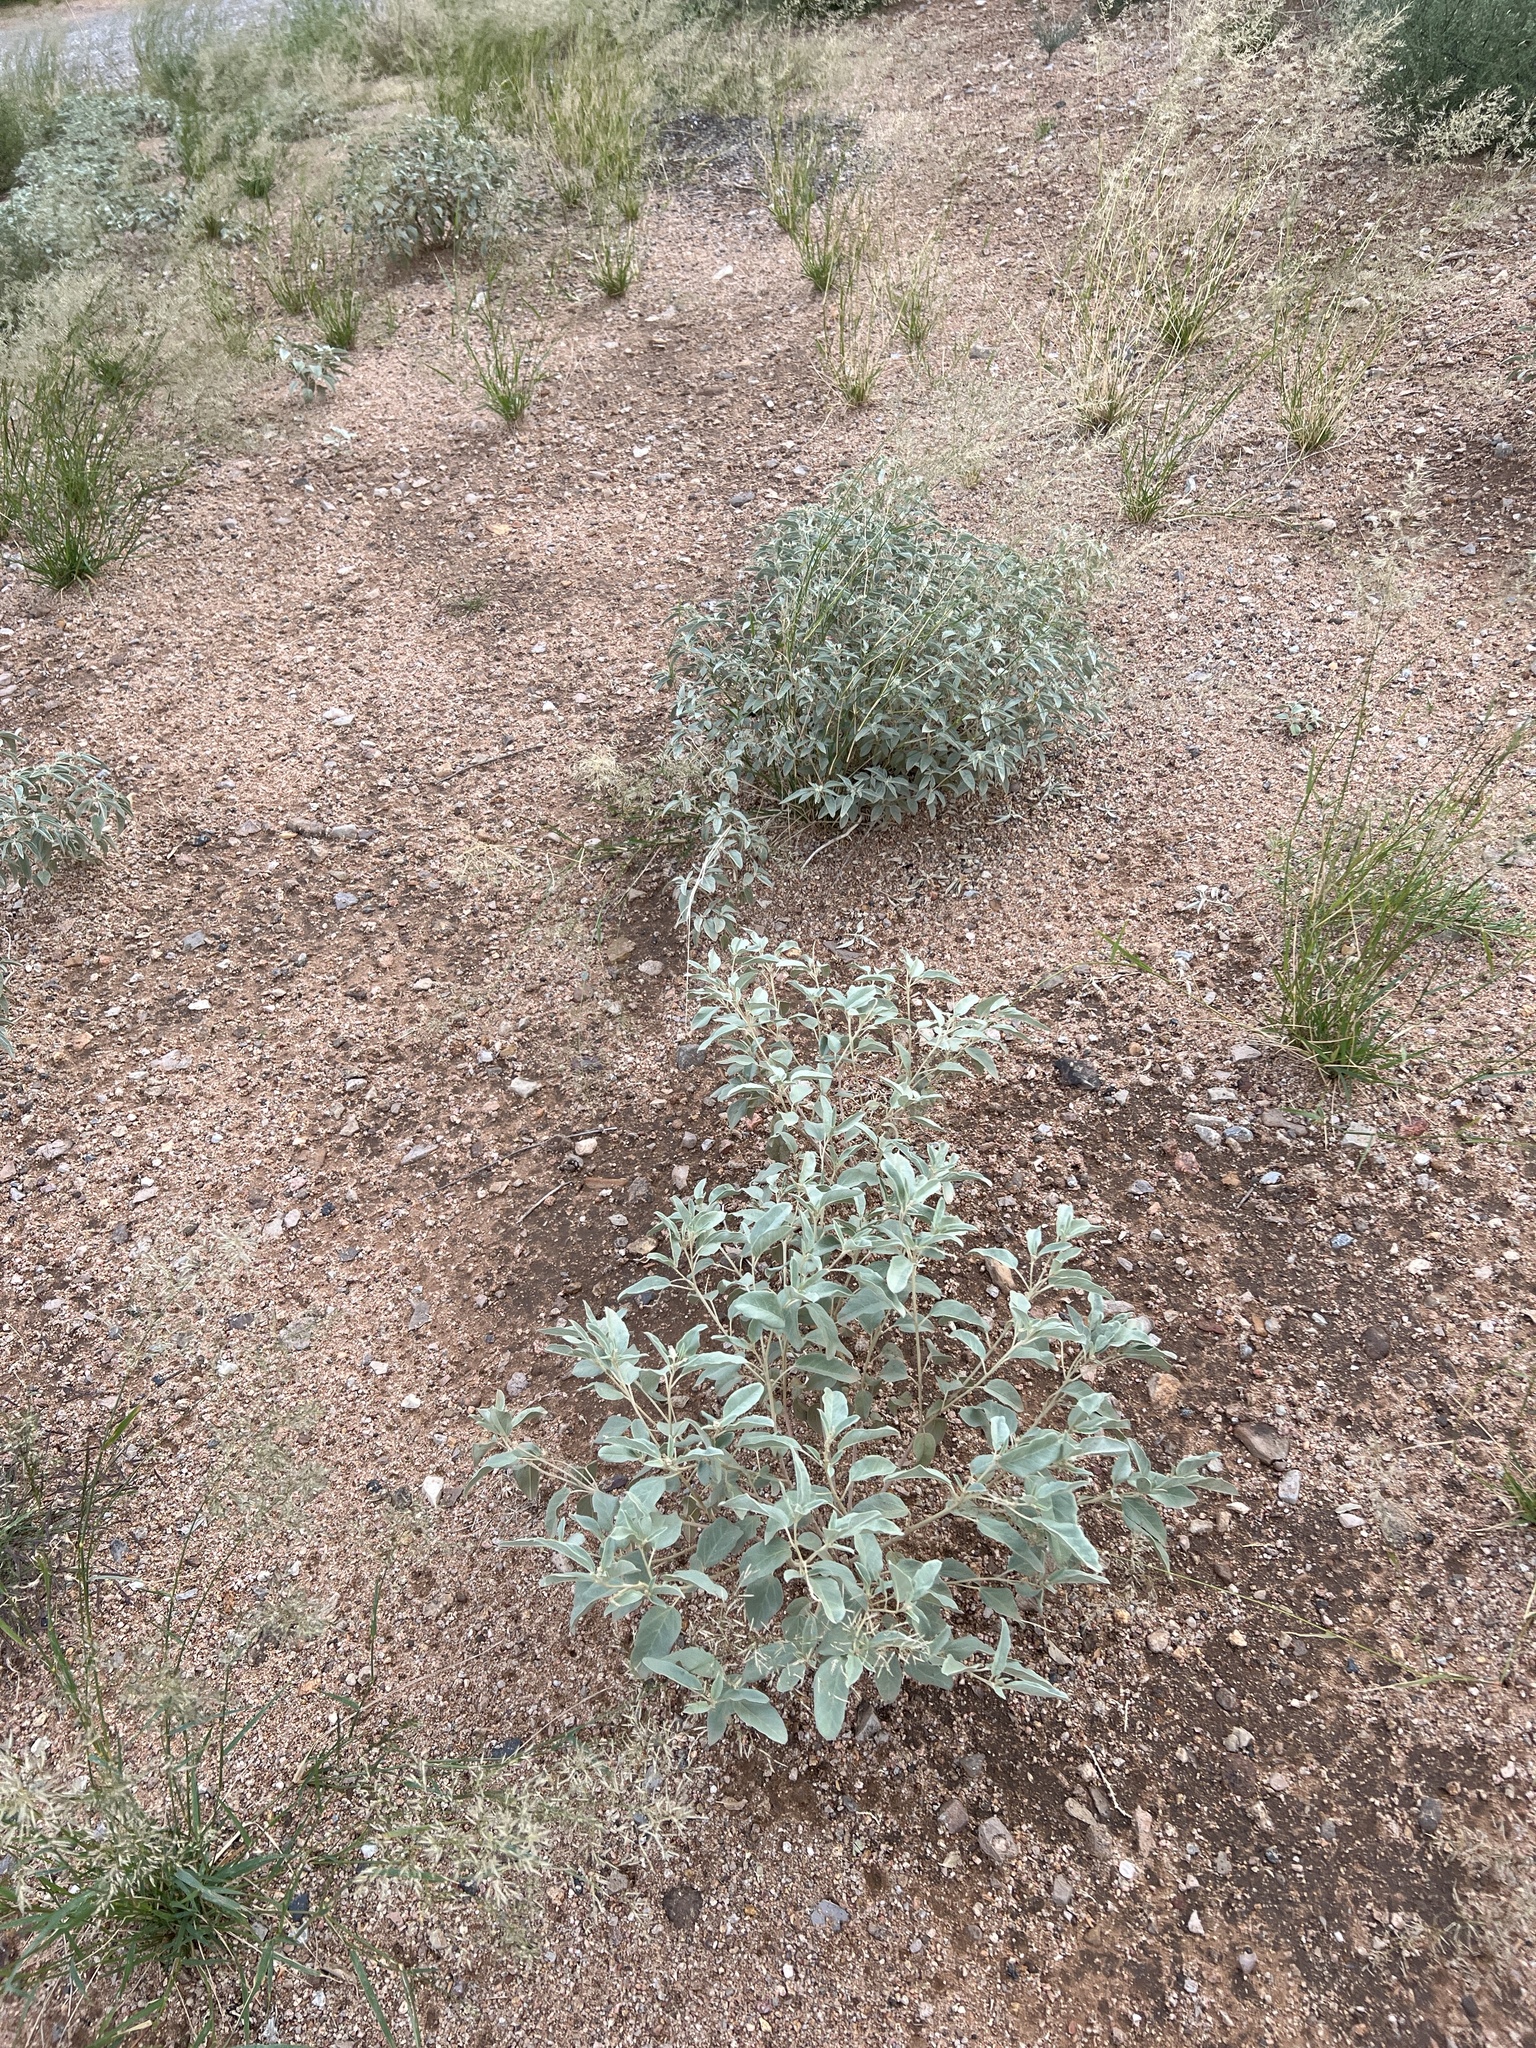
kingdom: Plantae
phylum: Tracheophyta
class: Magnoliopsida
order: Malpighiales
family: Euphorbiaceae
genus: Croton
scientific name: Croton pottsii
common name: Leatherweed
